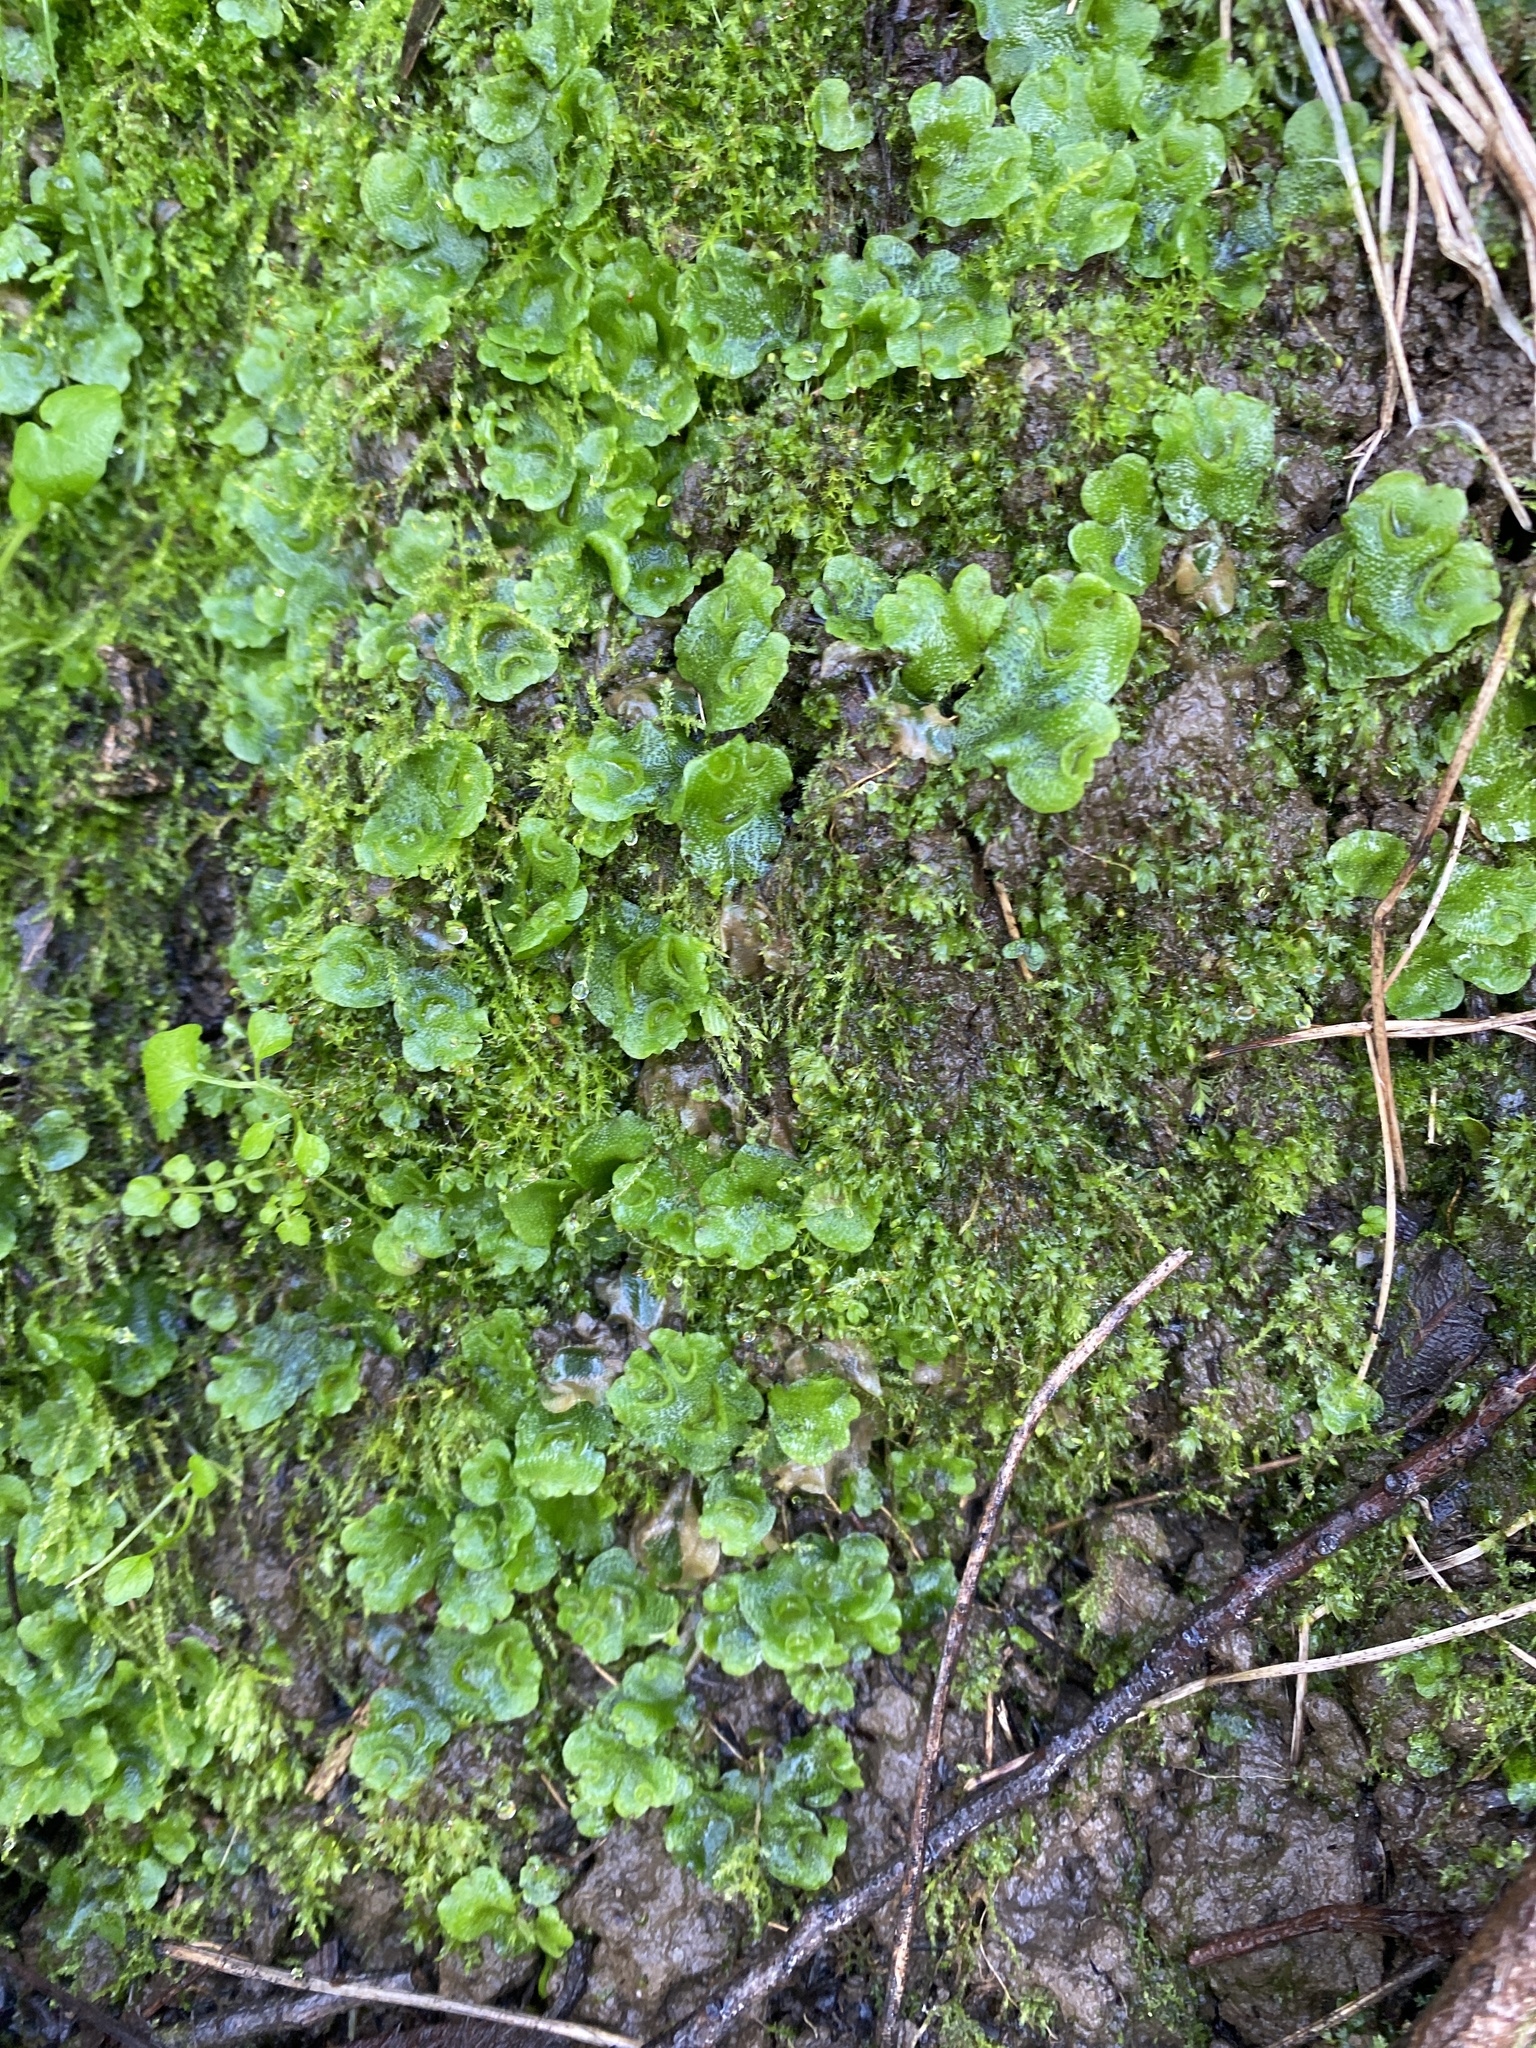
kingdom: Plantae
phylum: Marchantiophyta
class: Marchantiopsida
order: Lunulariales
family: Lunulariaceae
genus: Lunularia
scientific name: Lunularia cruciata
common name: Crescent-cup liverwort
